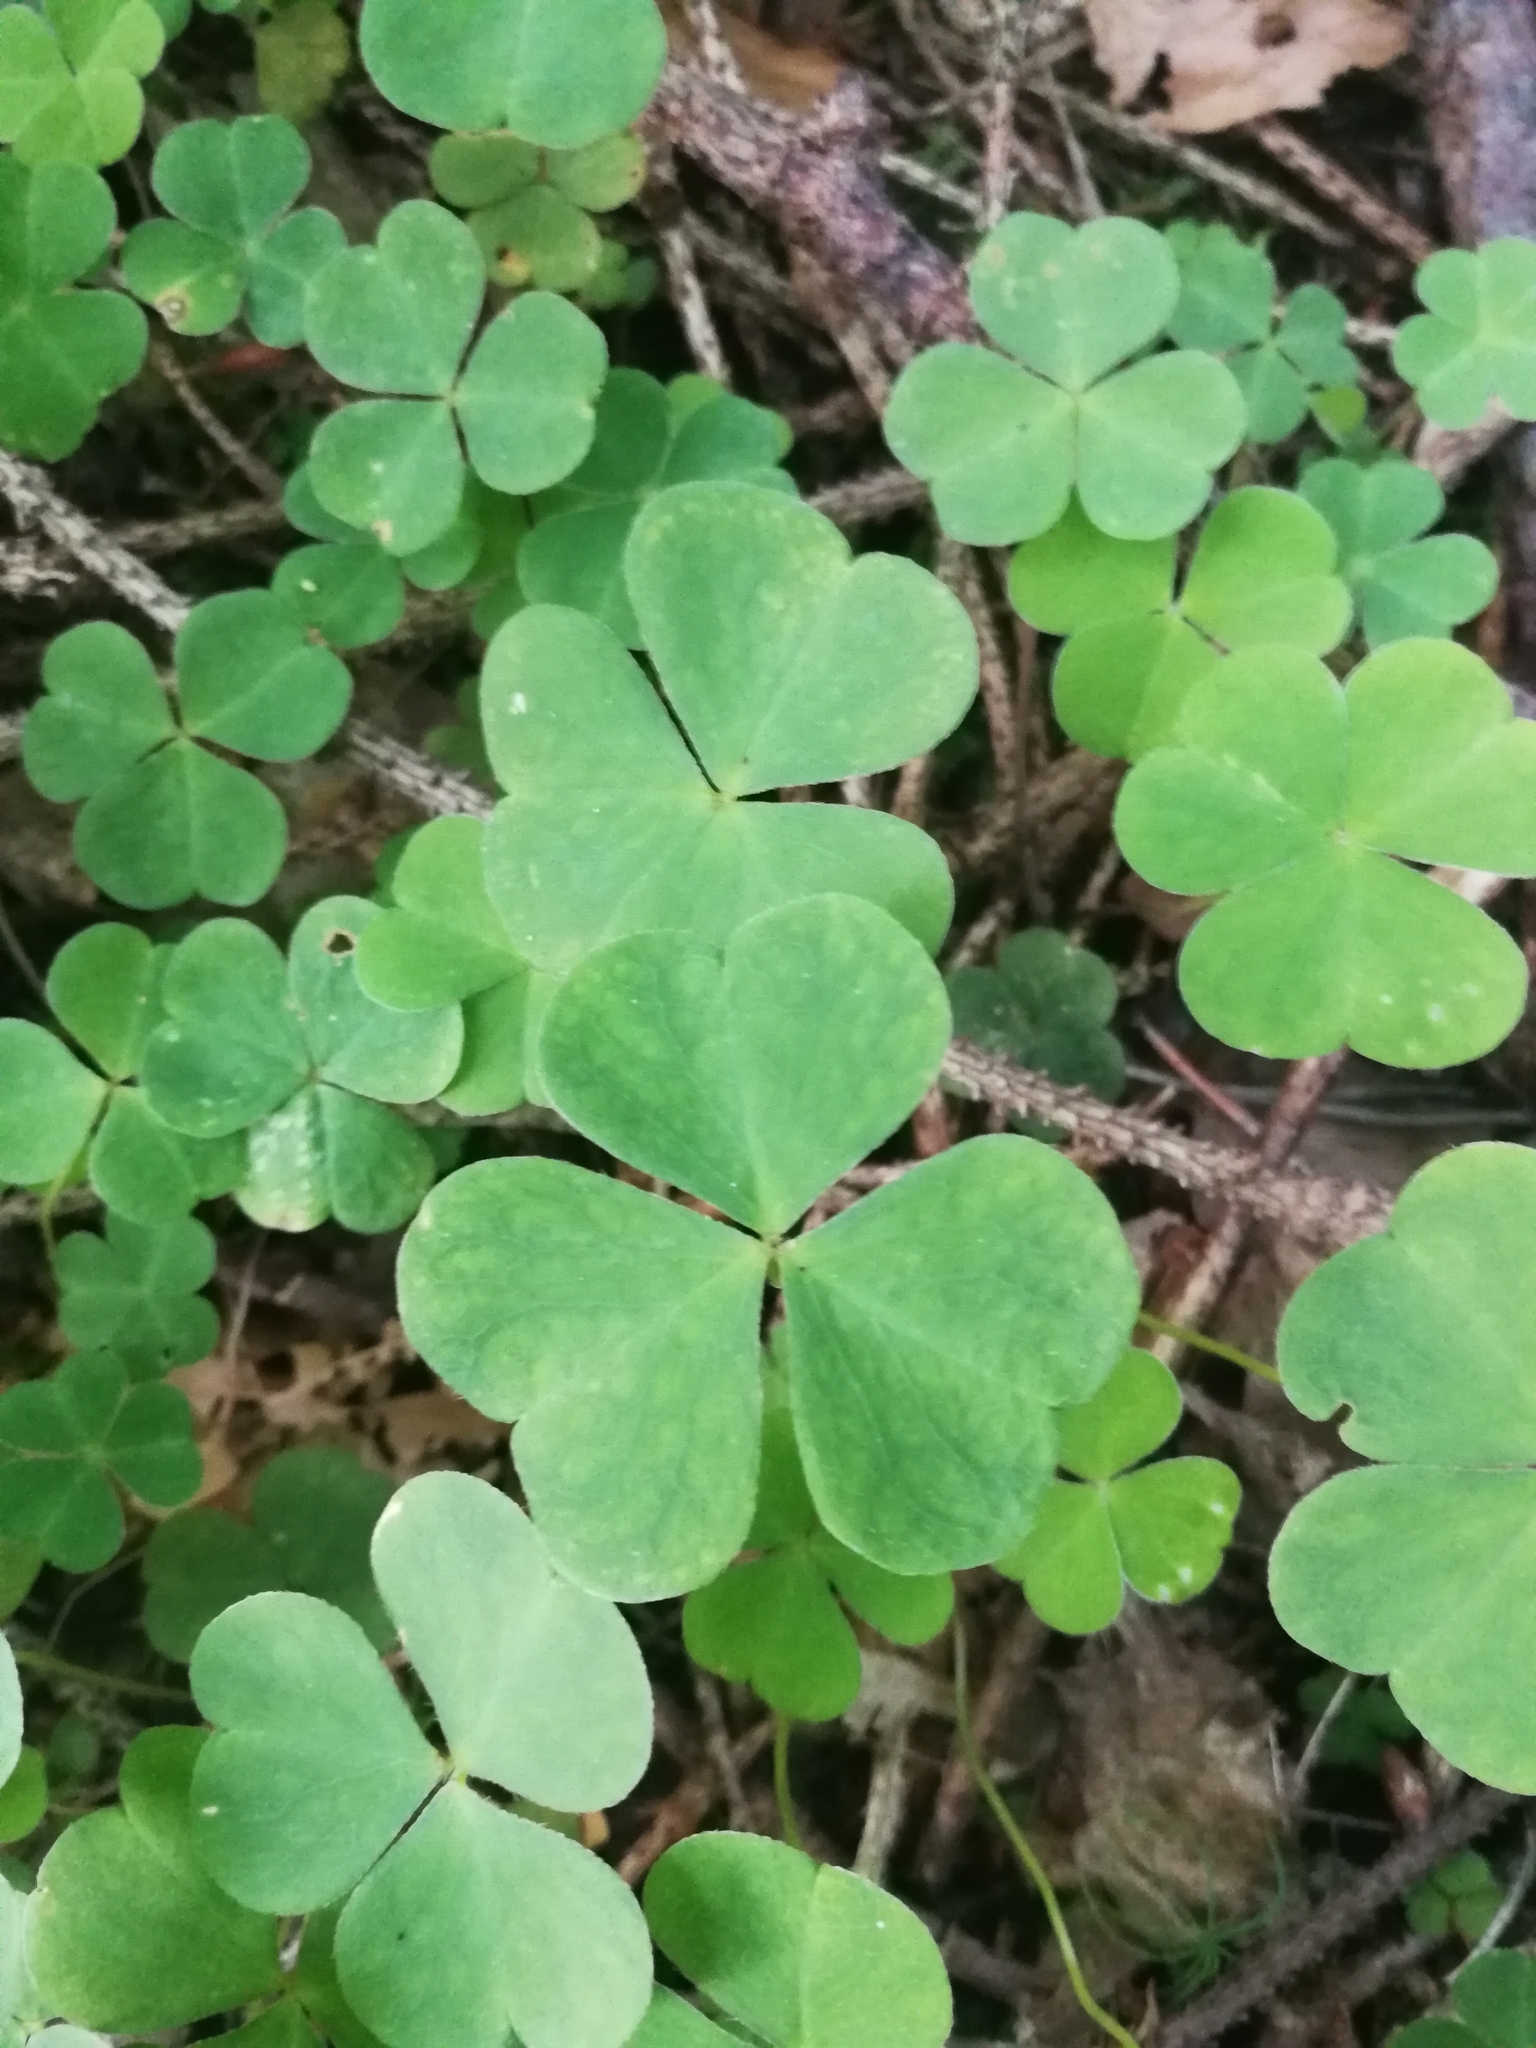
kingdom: Plantae
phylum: Tracheophyta
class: Magnoliopsida
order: Oxalidales
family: Oxalidaceae
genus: Oxalis
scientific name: Oxalis acetosella
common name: Wood-sorrel
